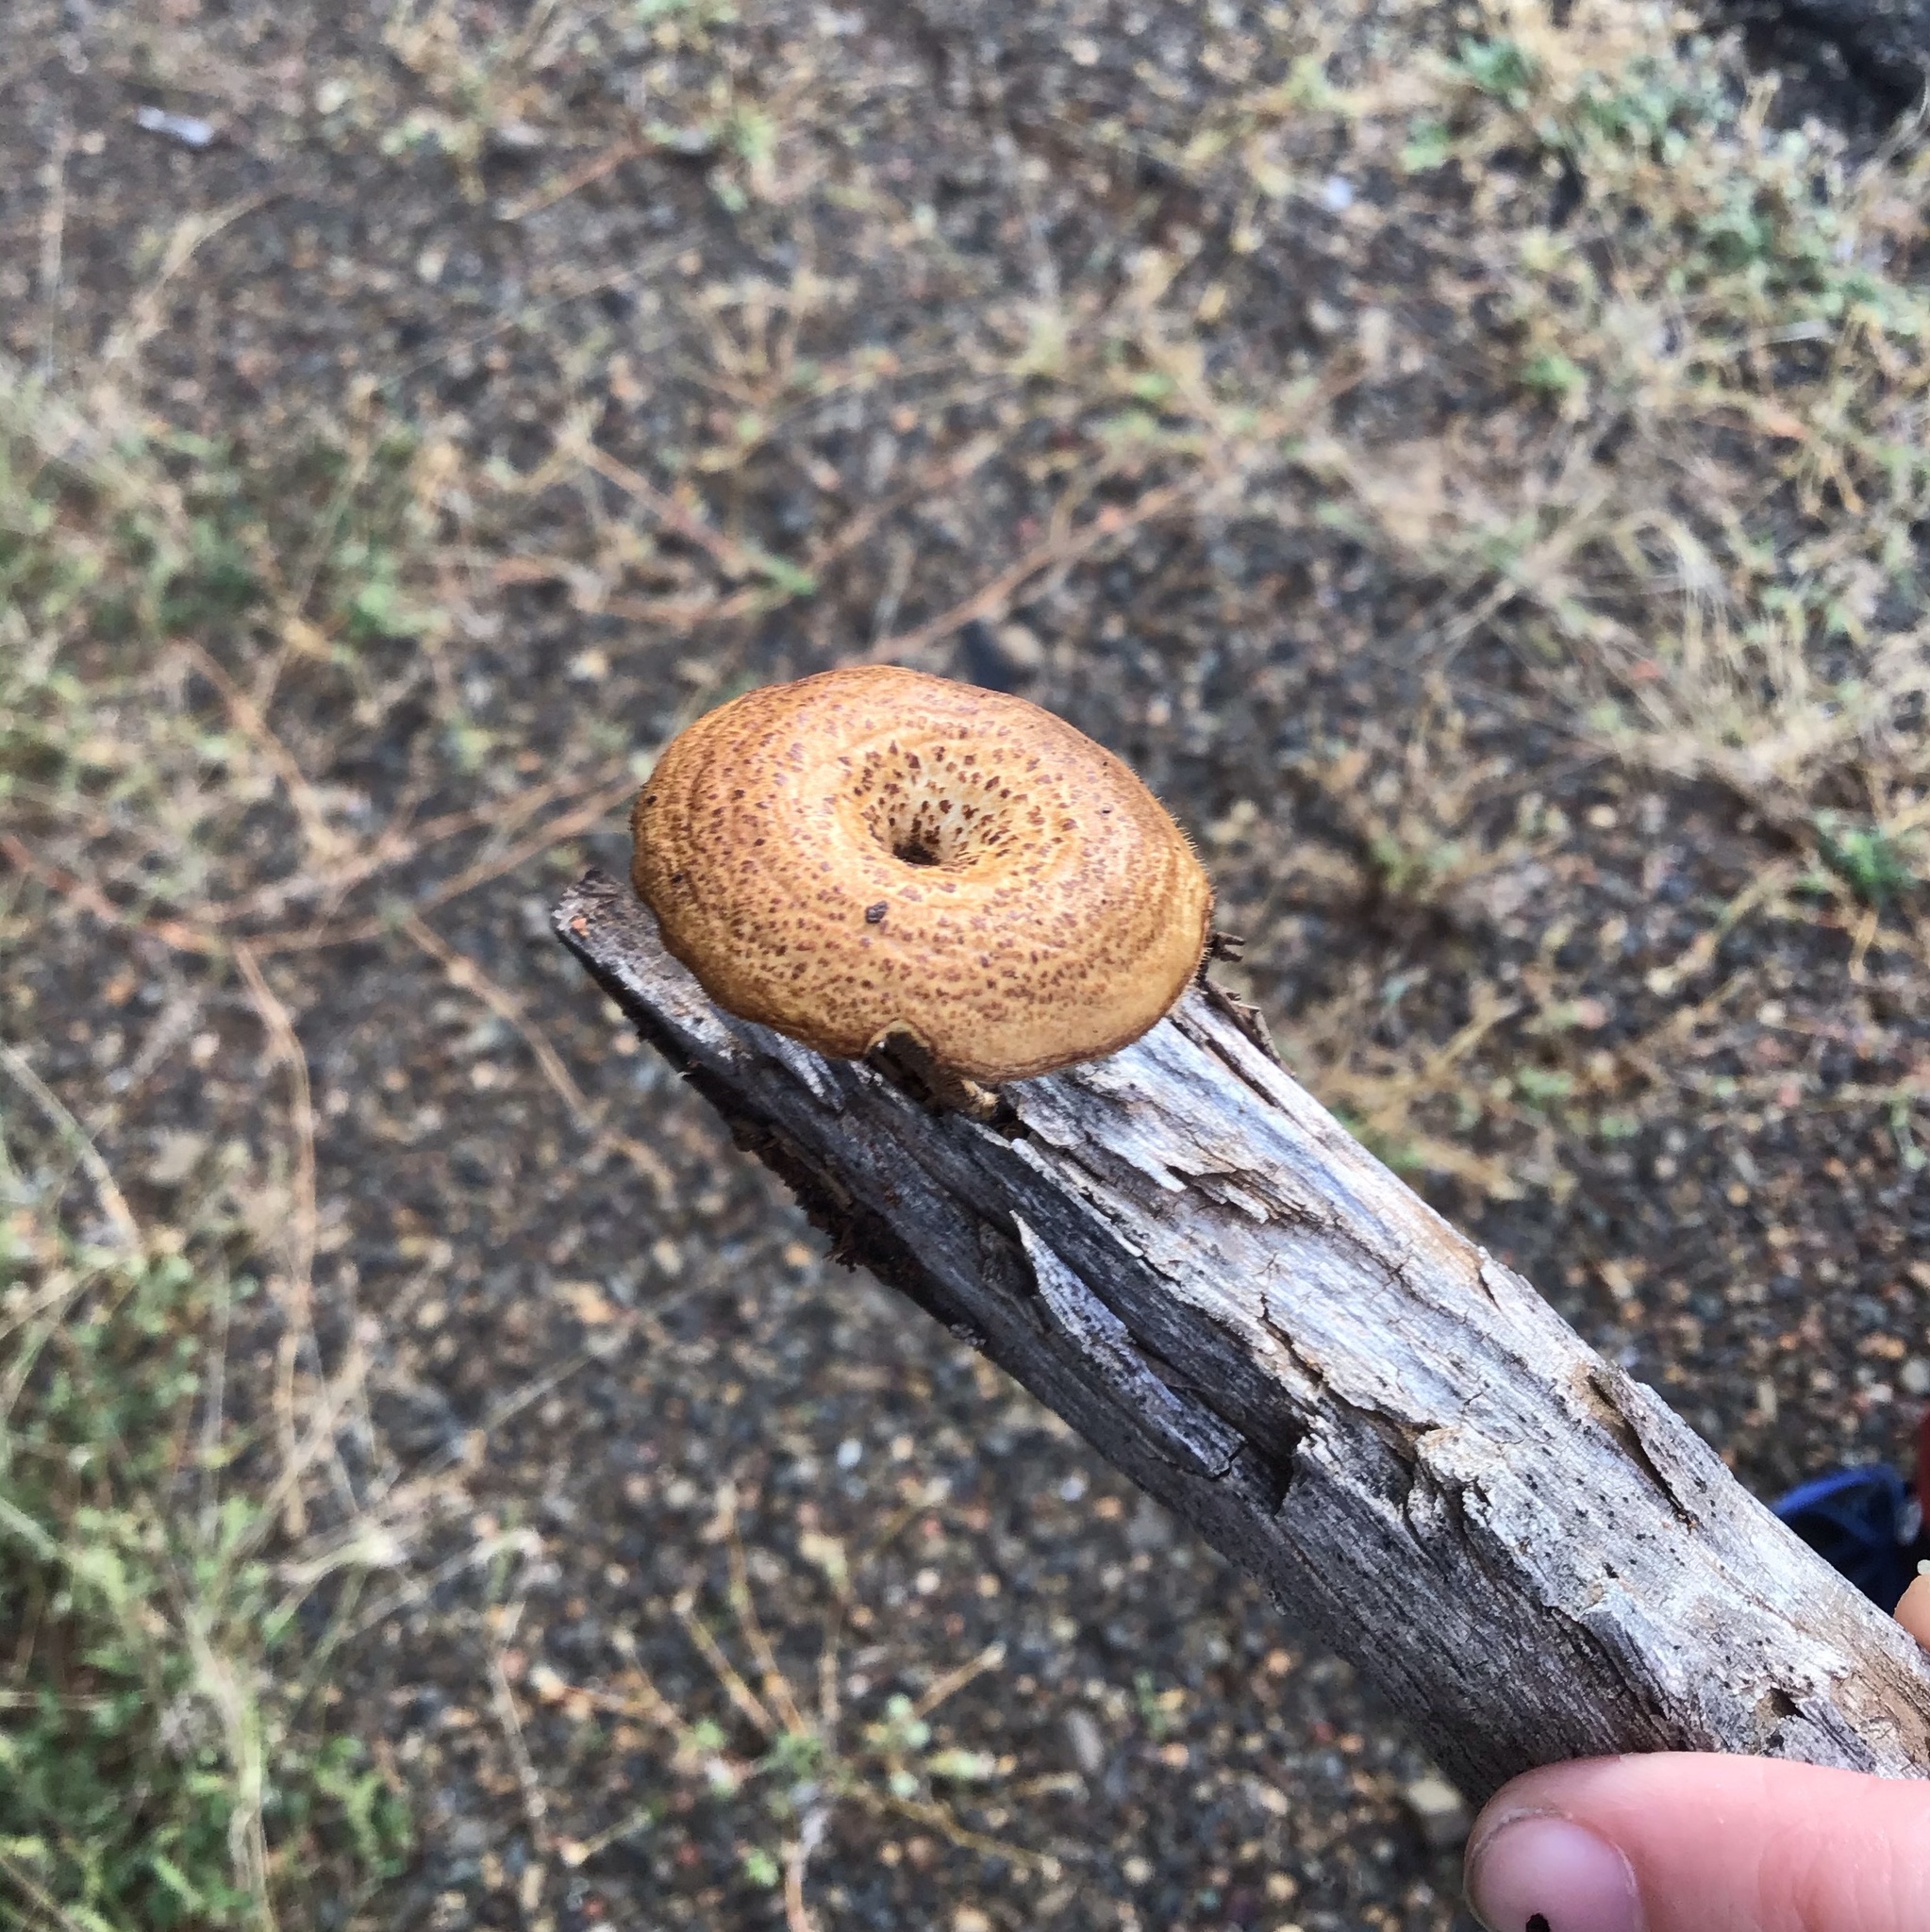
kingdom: Fungi
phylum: Basidiomycota
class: Agaricomycetes
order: Polyporales
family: Polyporaceae
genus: Lentinus
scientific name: Lentinus arcularius
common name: Spring polypore
